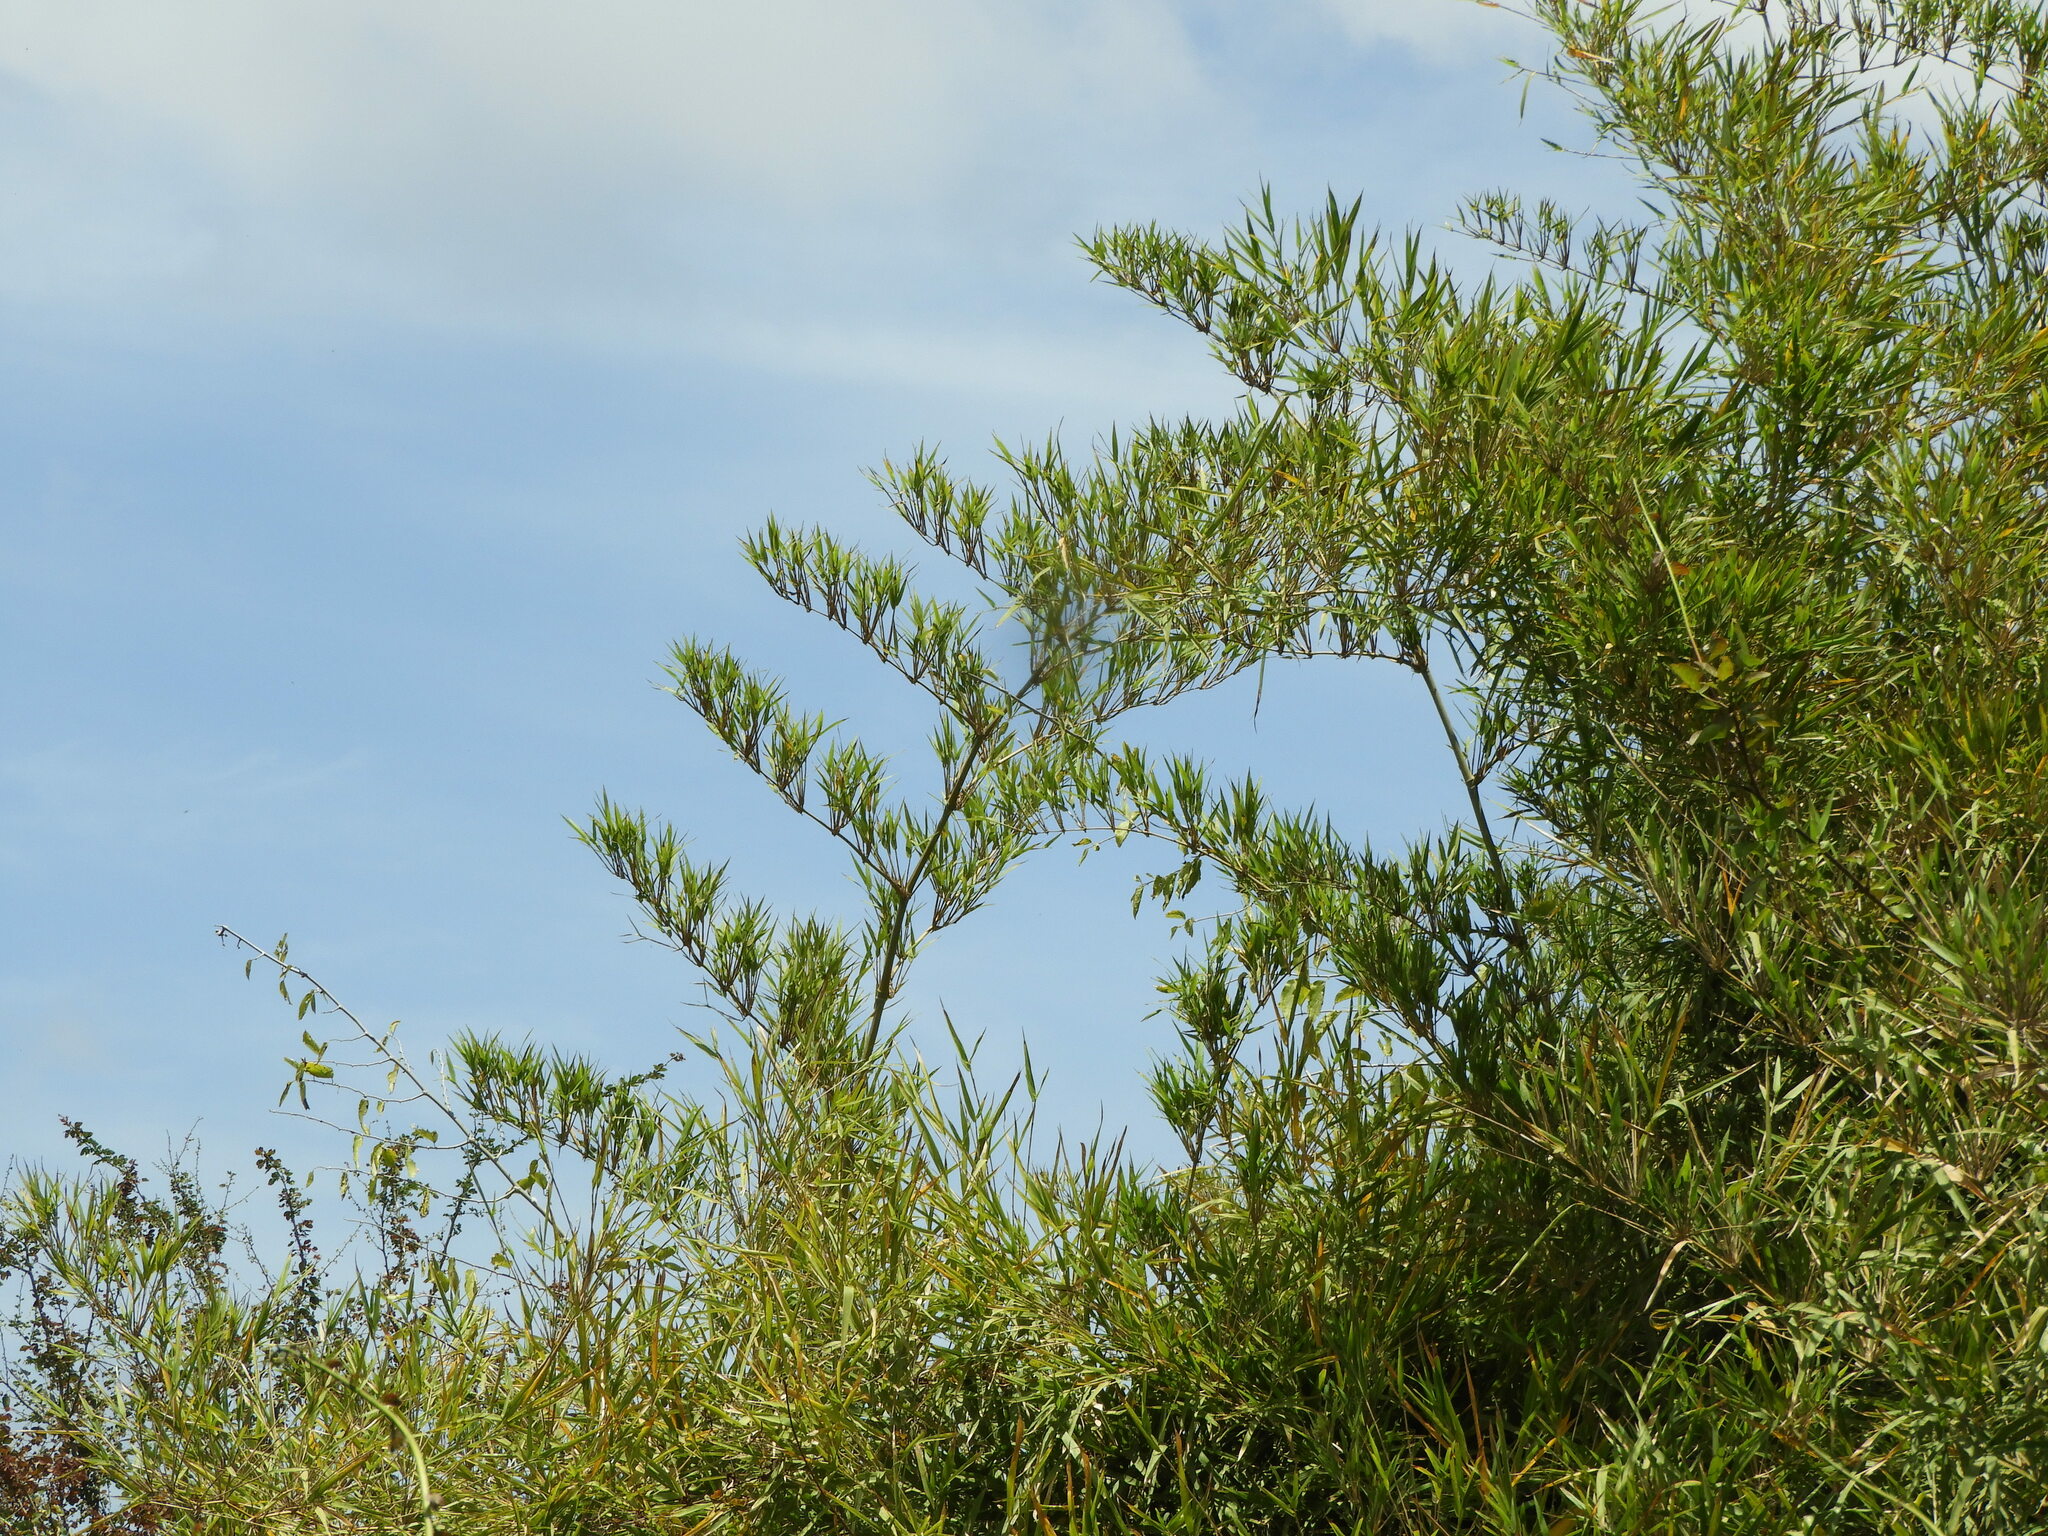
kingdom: Plantae
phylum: Tracheophyta
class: Liliopsida
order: Poales
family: Poaceae
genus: Guadua
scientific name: Guadua paniculata
